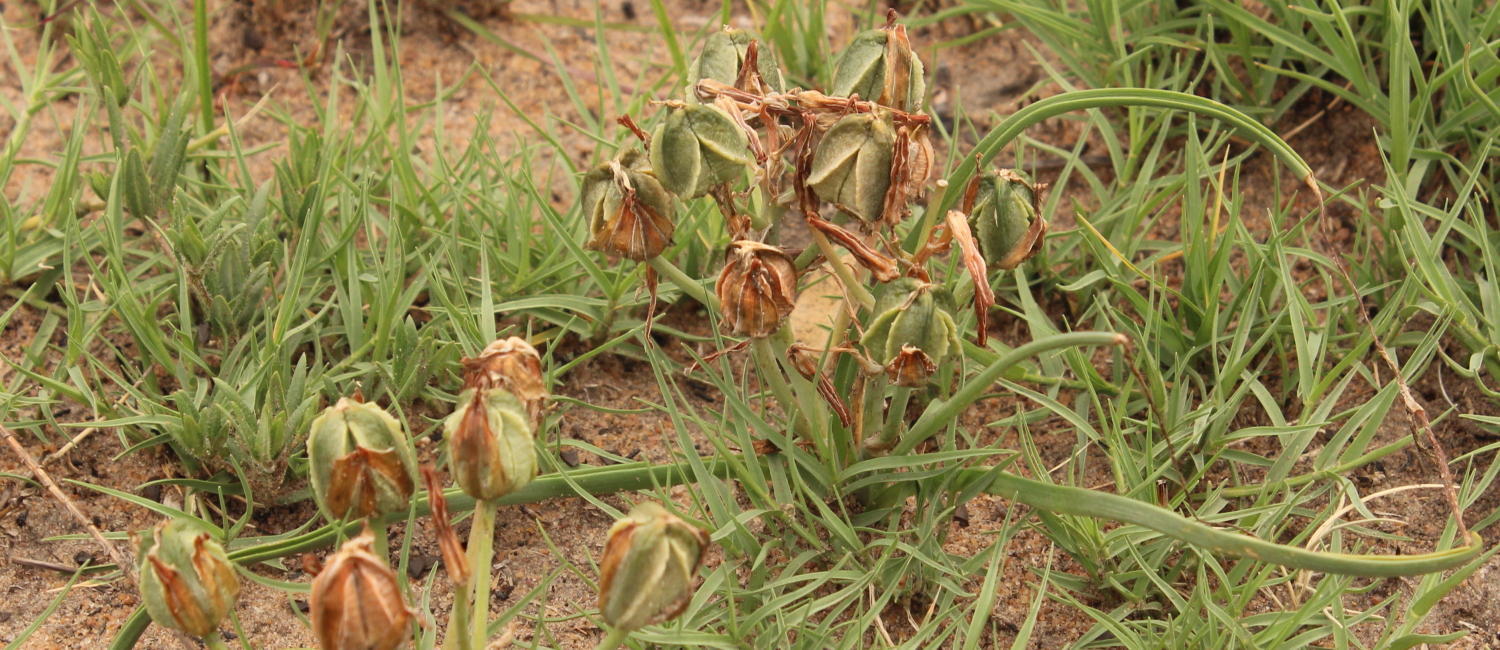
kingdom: Plantae
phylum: Tracheophyta
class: Liliopsida
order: Asparagales
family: Asparagaceae
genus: Albuca
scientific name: Albuca setosa
